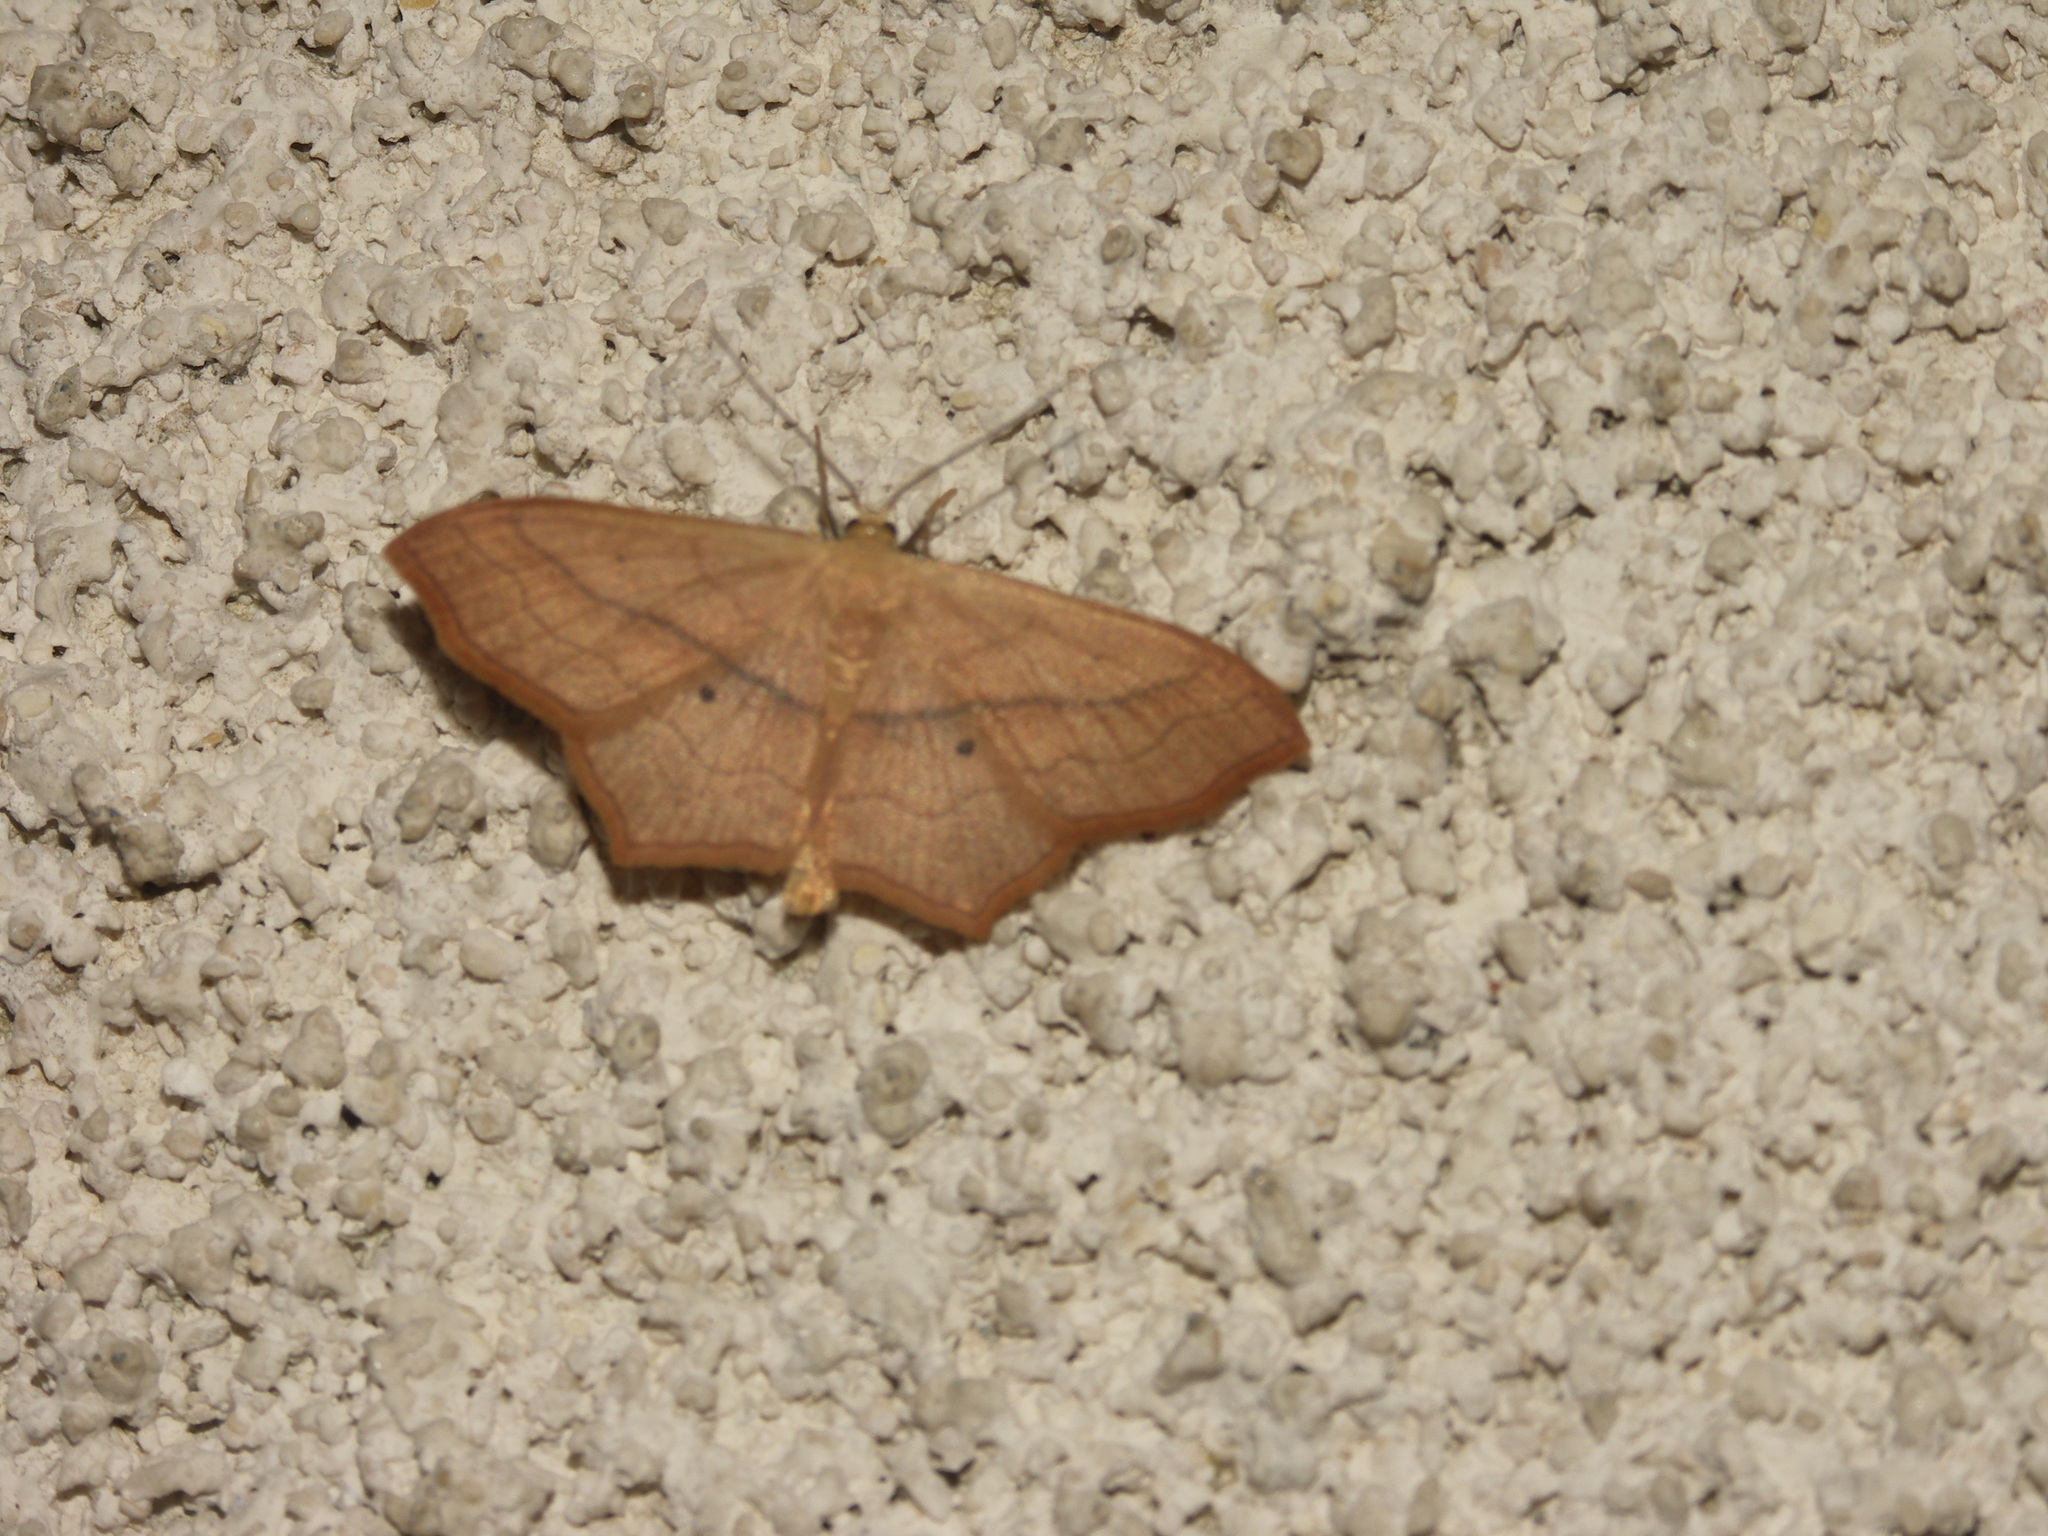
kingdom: Animalia
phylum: Arthropoda
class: Insecta
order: Lepidoptera
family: Geometridae
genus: Scopula
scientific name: Scopula imitaria
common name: Small blood-vein
